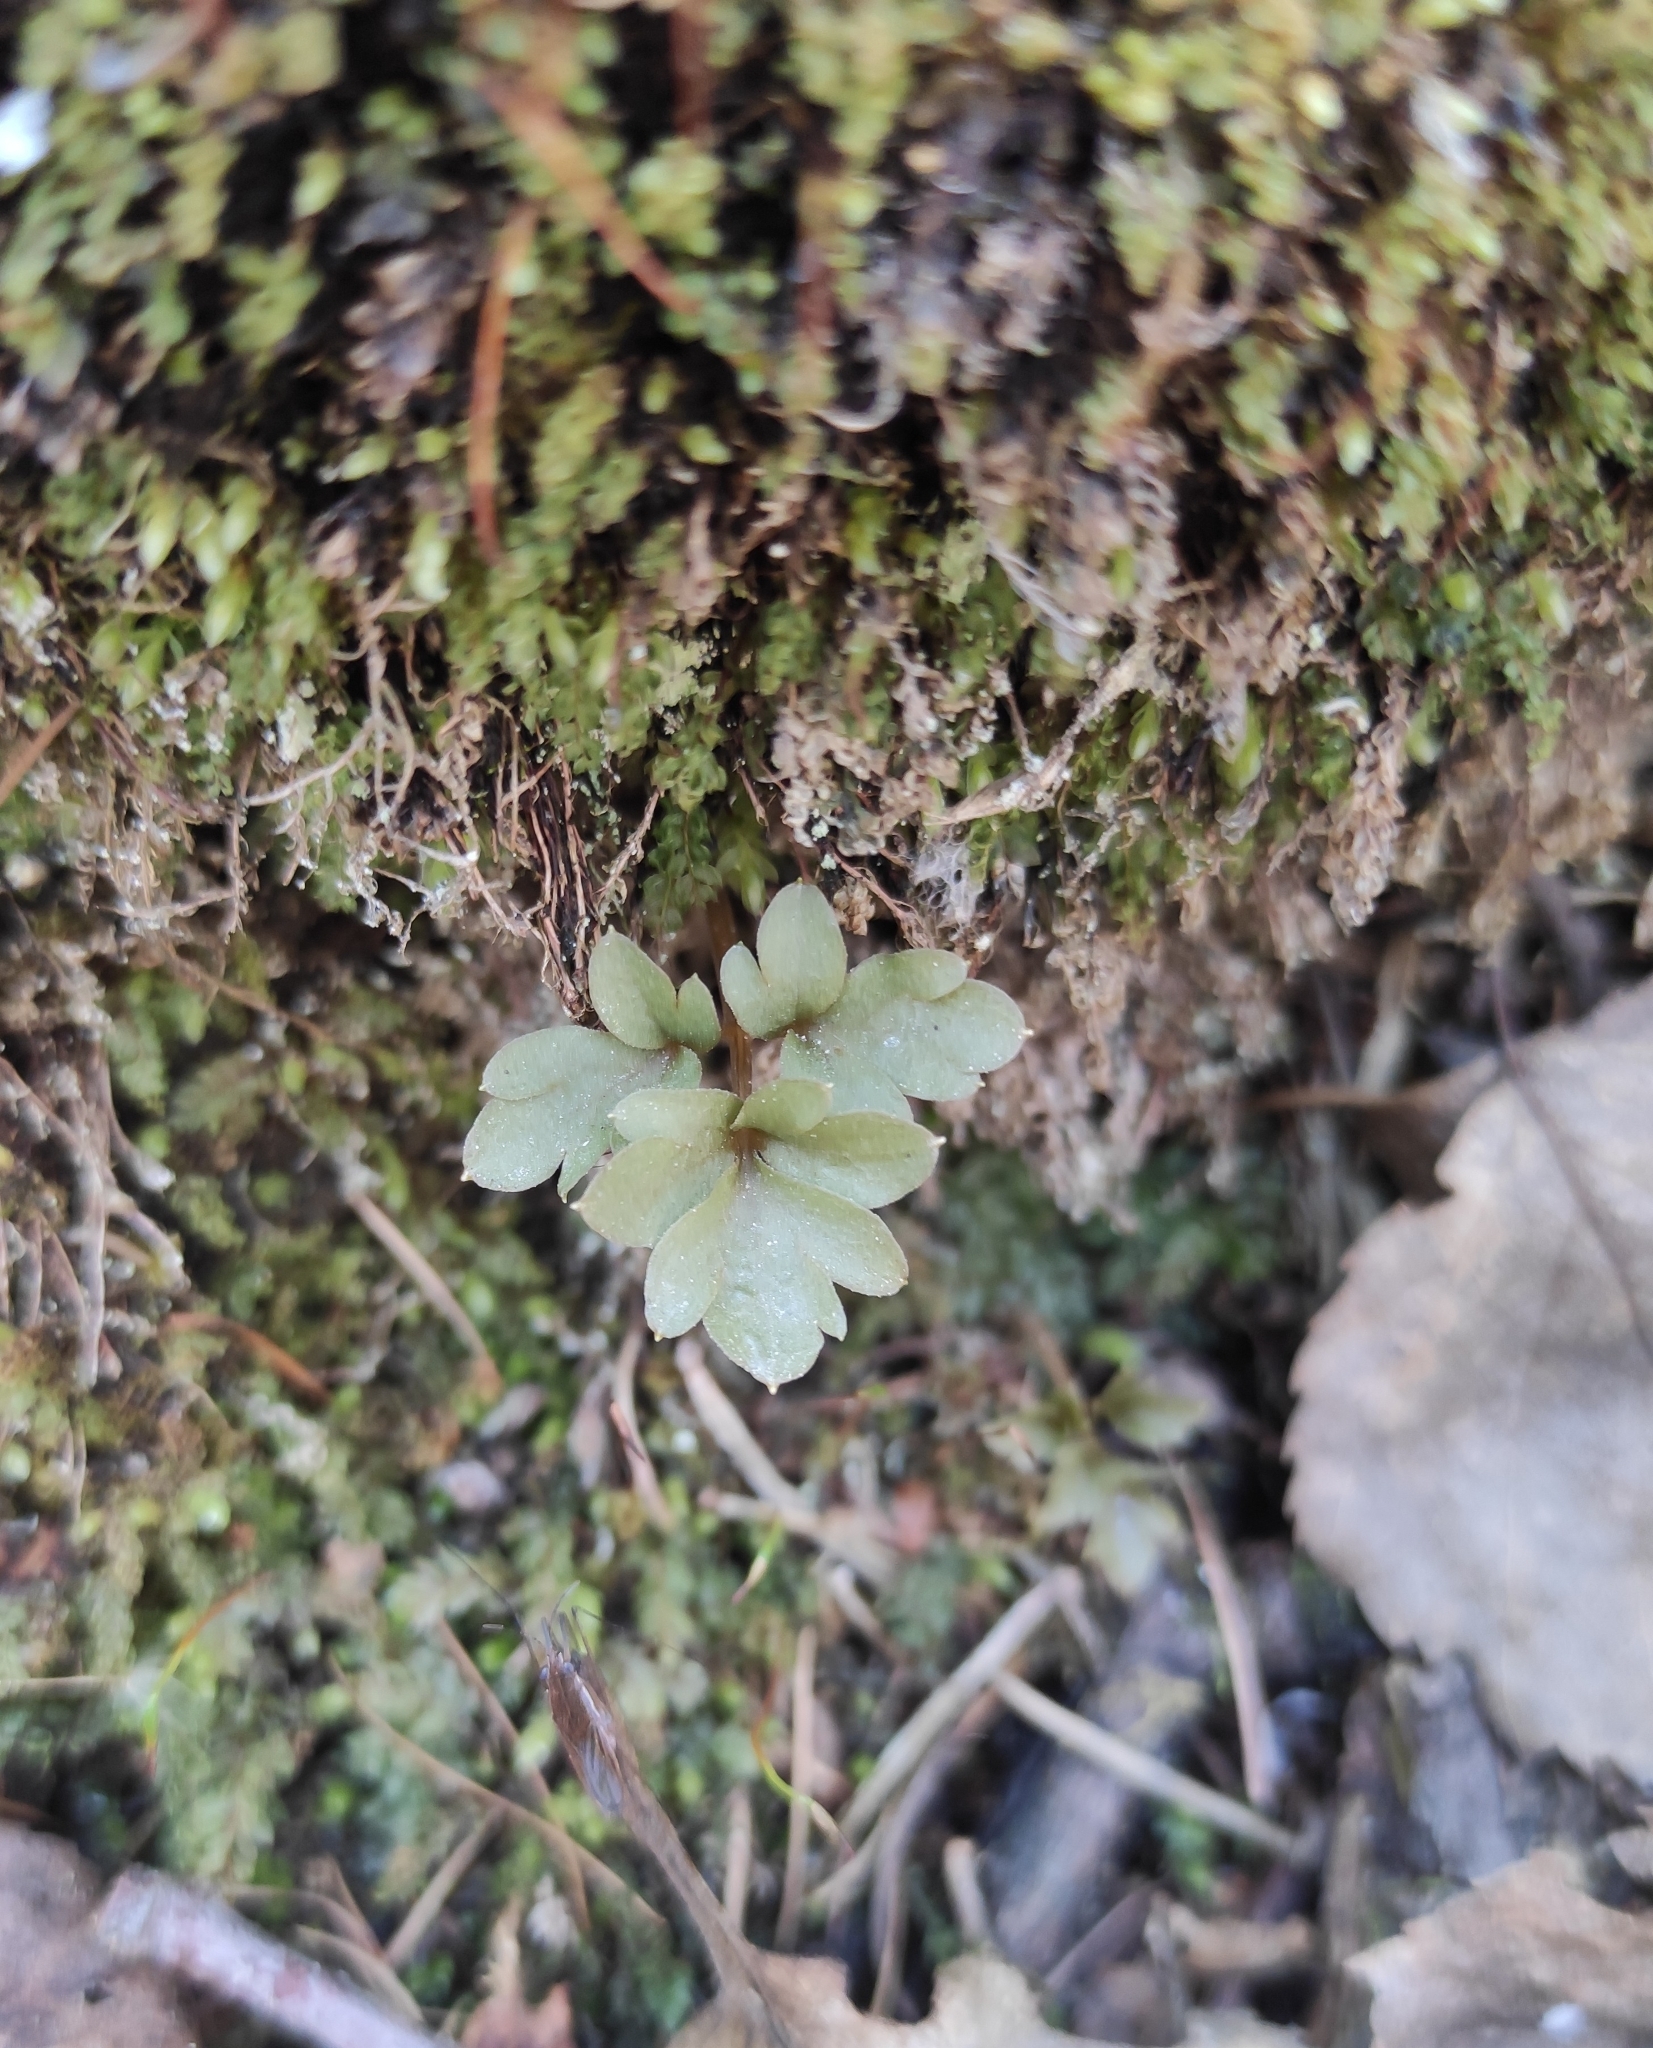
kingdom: Plantae
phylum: Tracheophyta
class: Magnoliopsida
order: Dipsacales
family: Viburnaceae
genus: Adoxa
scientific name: Adoxa moschatellina
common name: Moschatel
